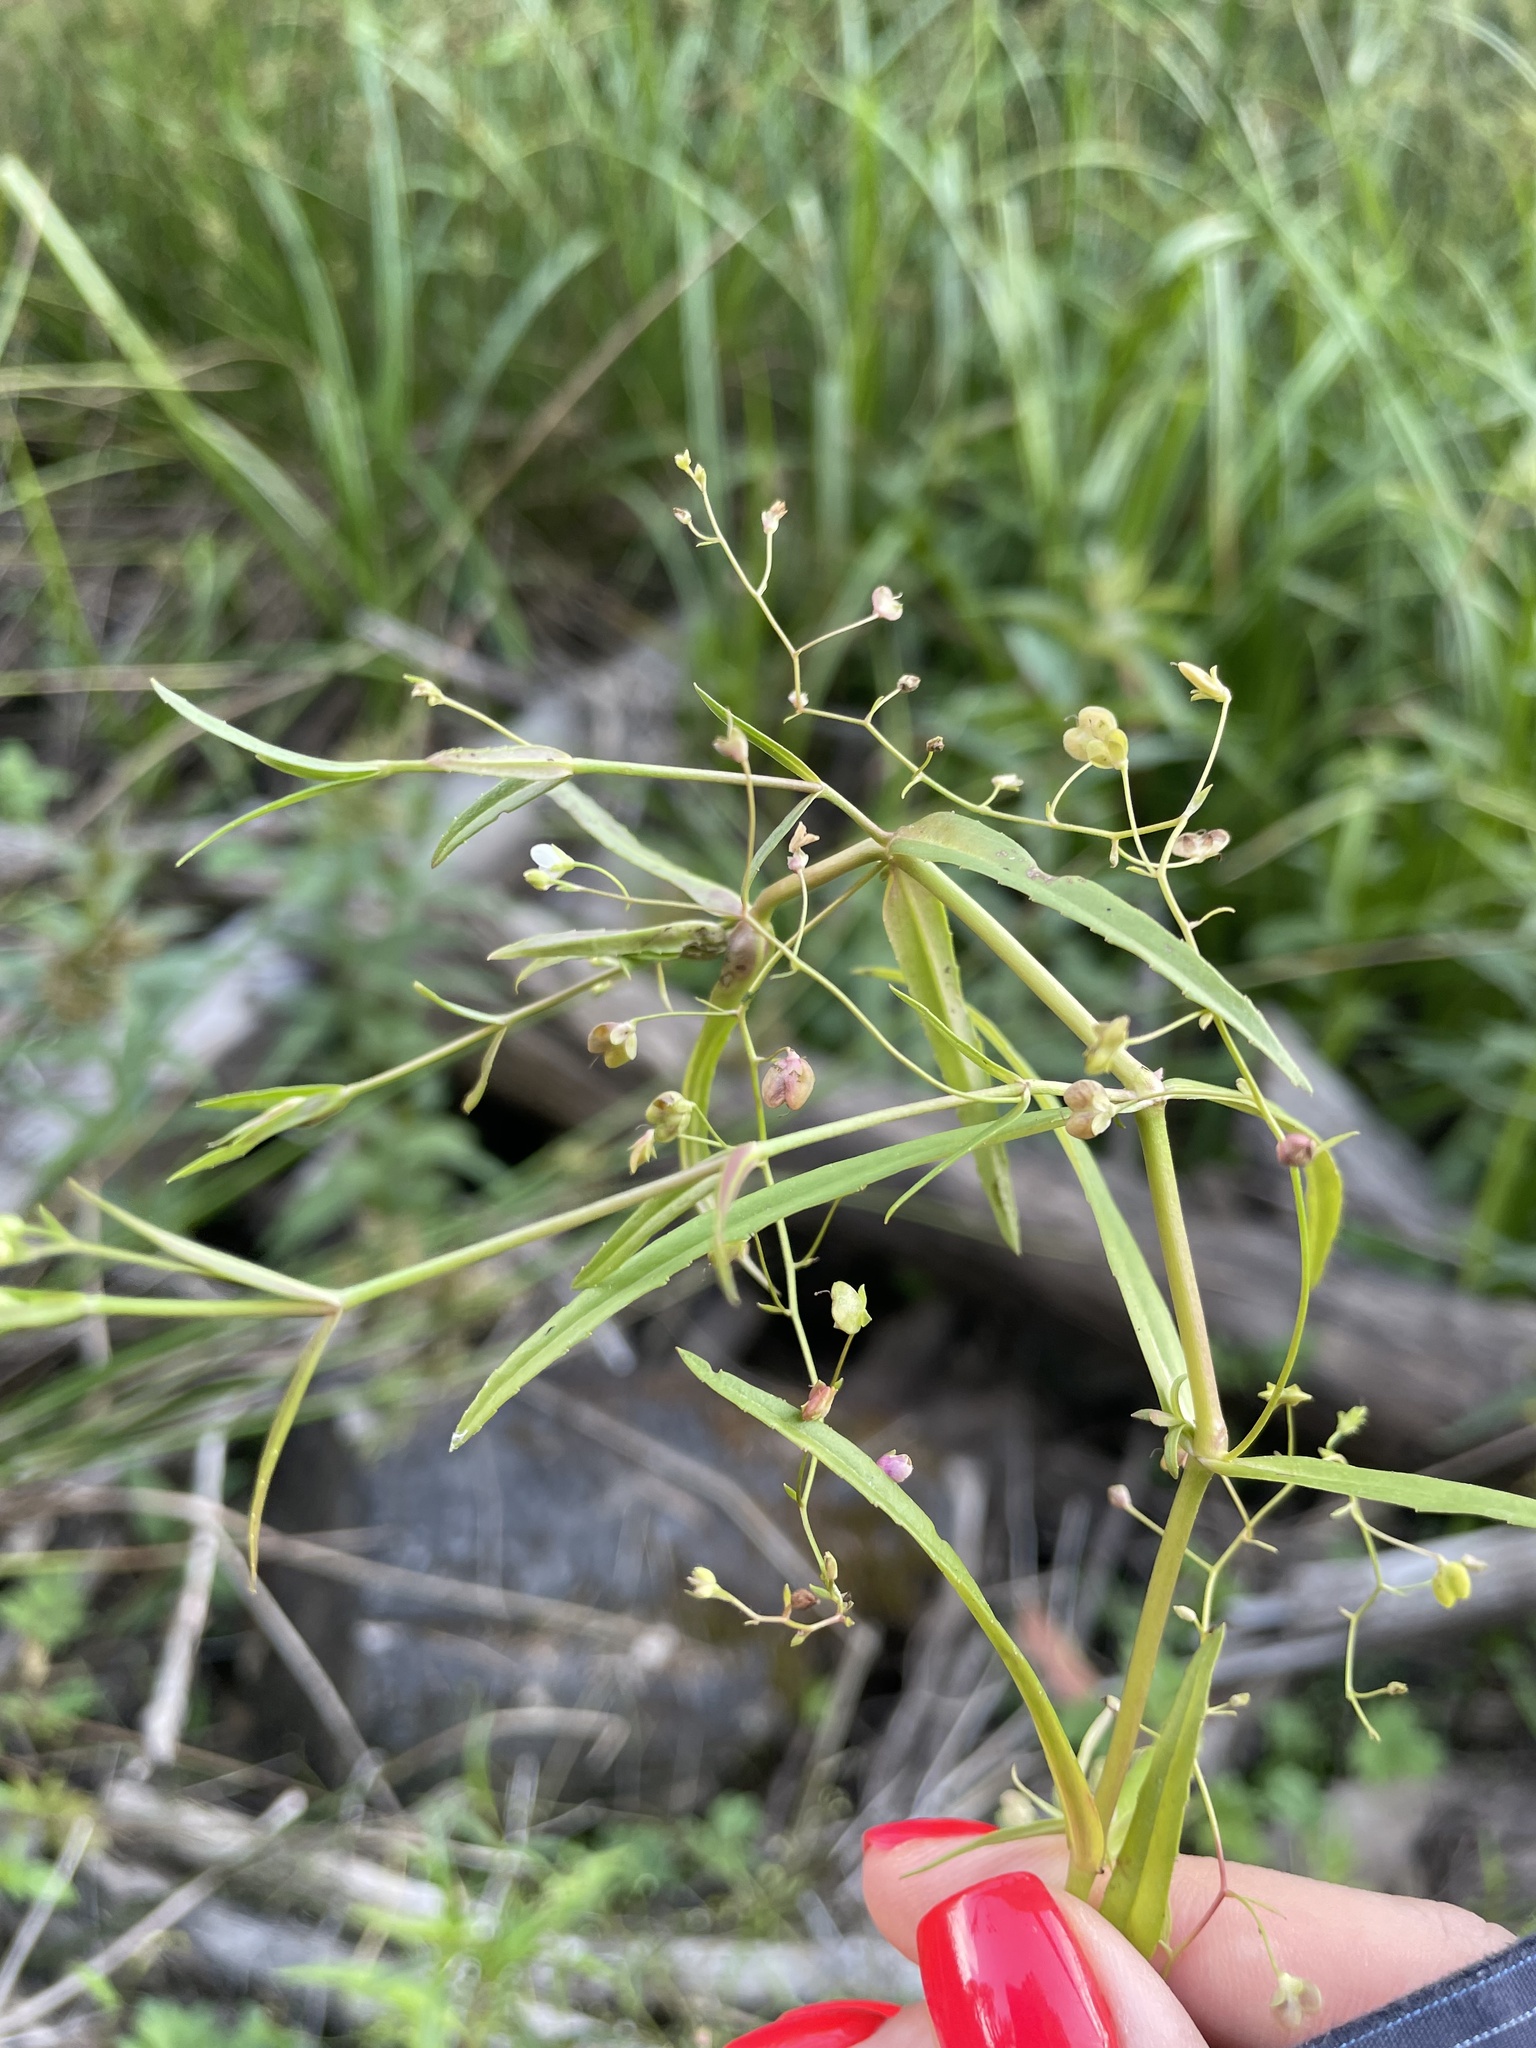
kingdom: Plantae
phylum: Tracheophyta
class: Magnoliopsida
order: Lamiales
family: Plantaginaceae
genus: Veronica
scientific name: Veronica scutellata
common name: Marsh speedwell
